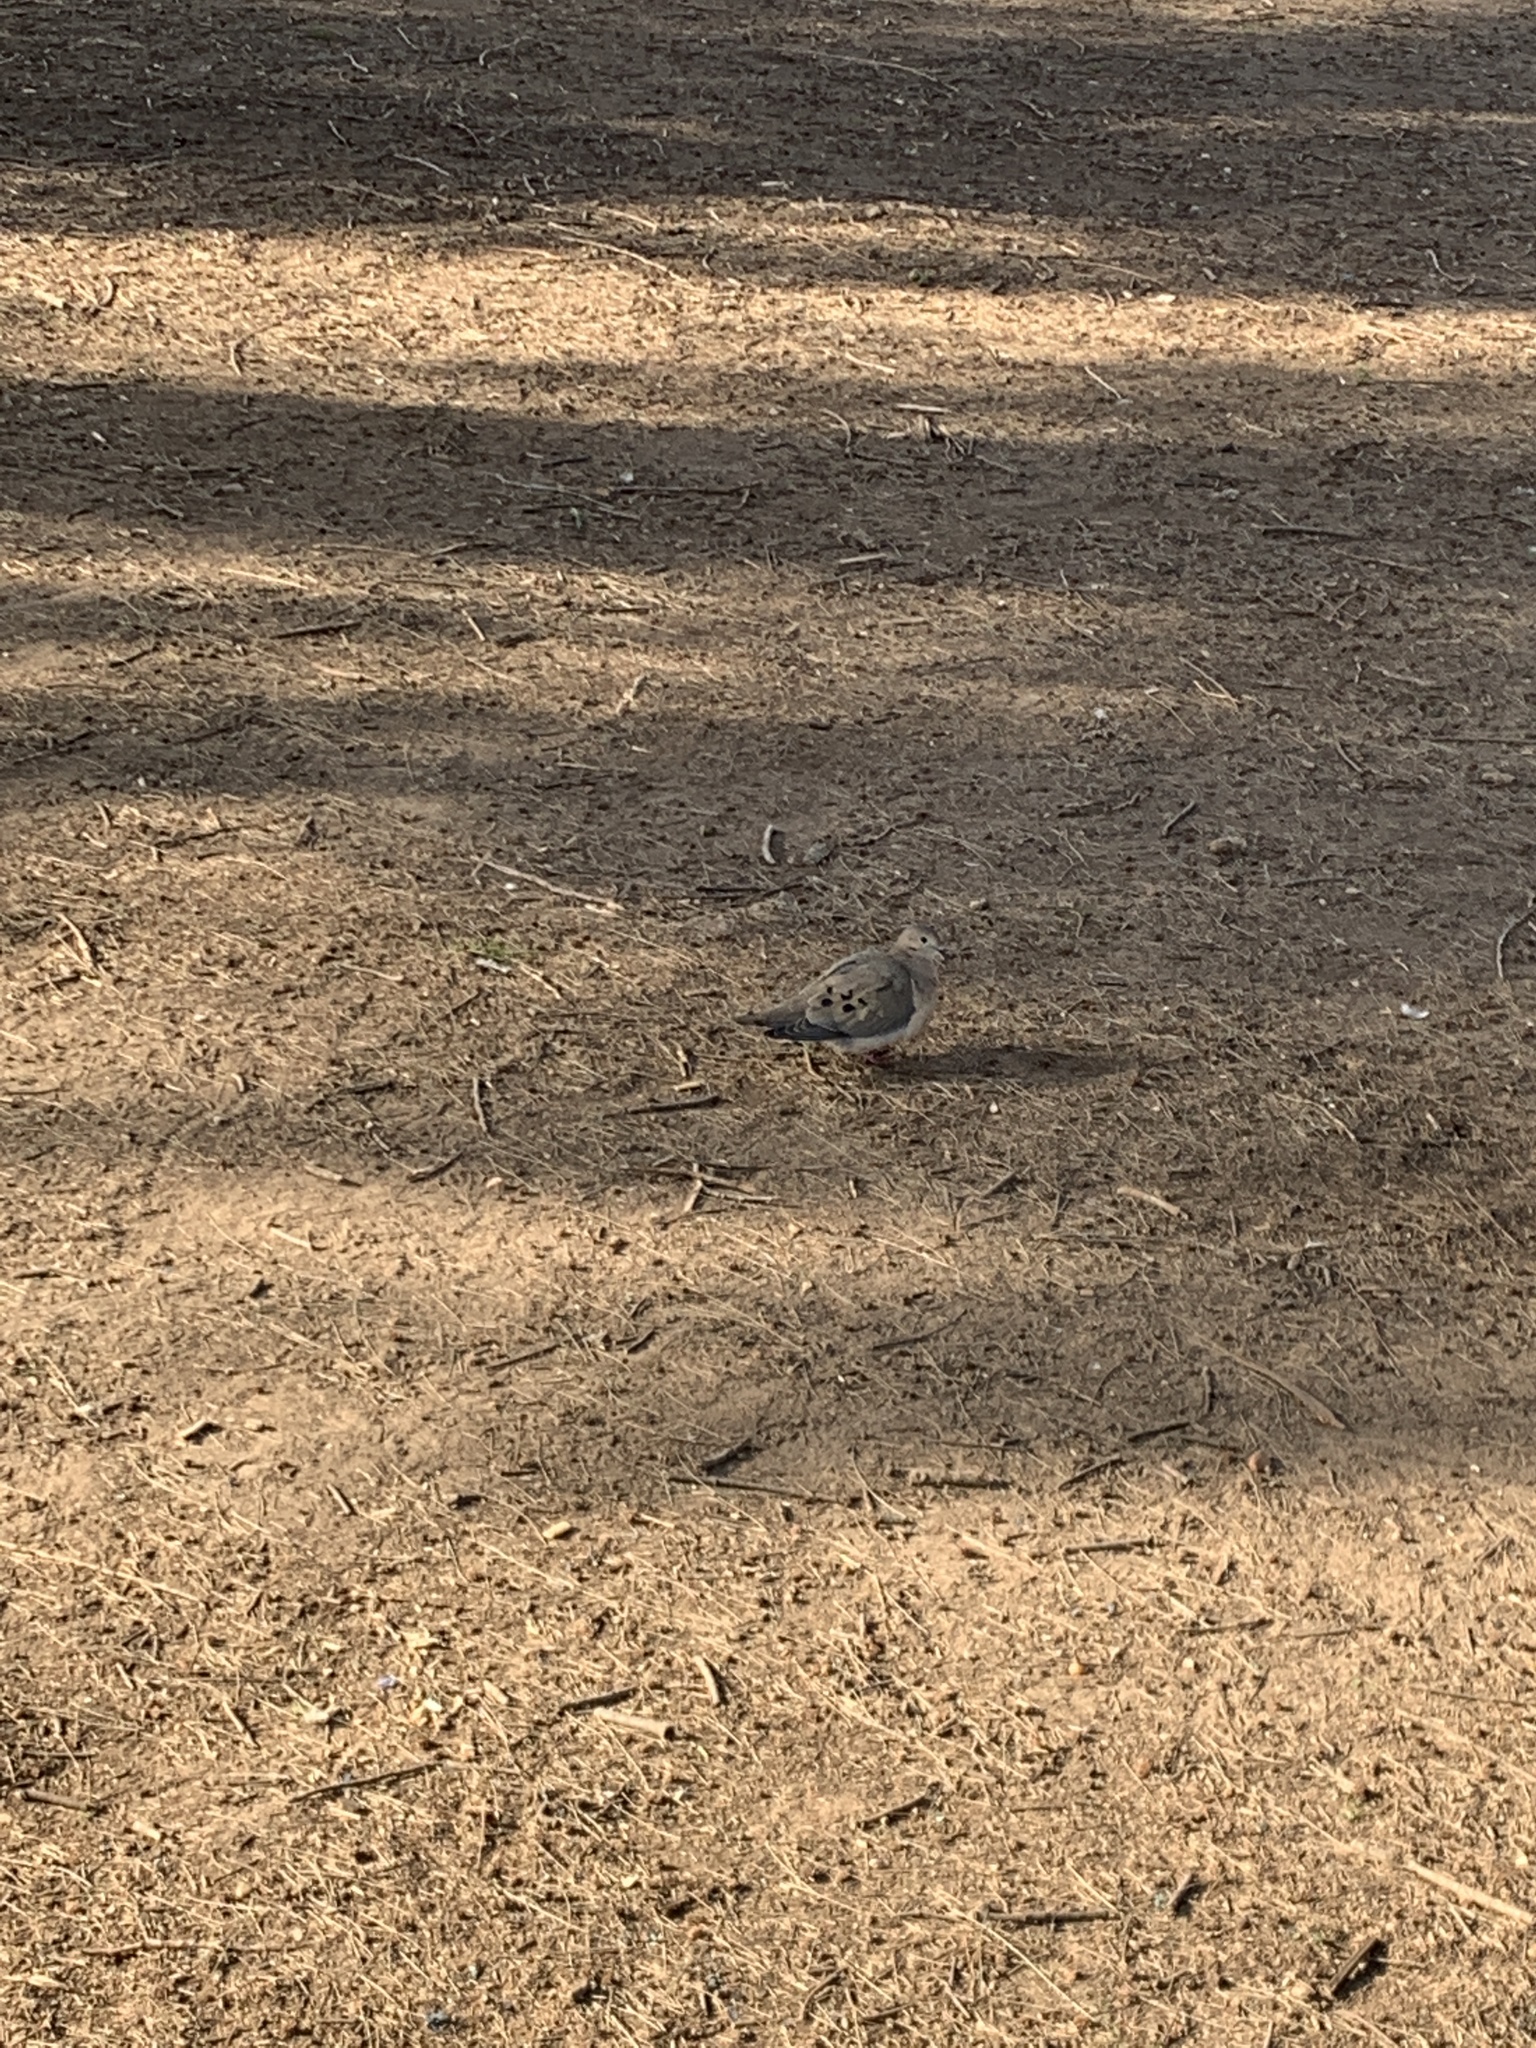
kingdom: Animalia
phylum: Chordata
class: Aves
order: Columbiformes
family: Columbidae
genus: Zenaida
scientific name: Zenaida auriculata
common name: Eared dove
